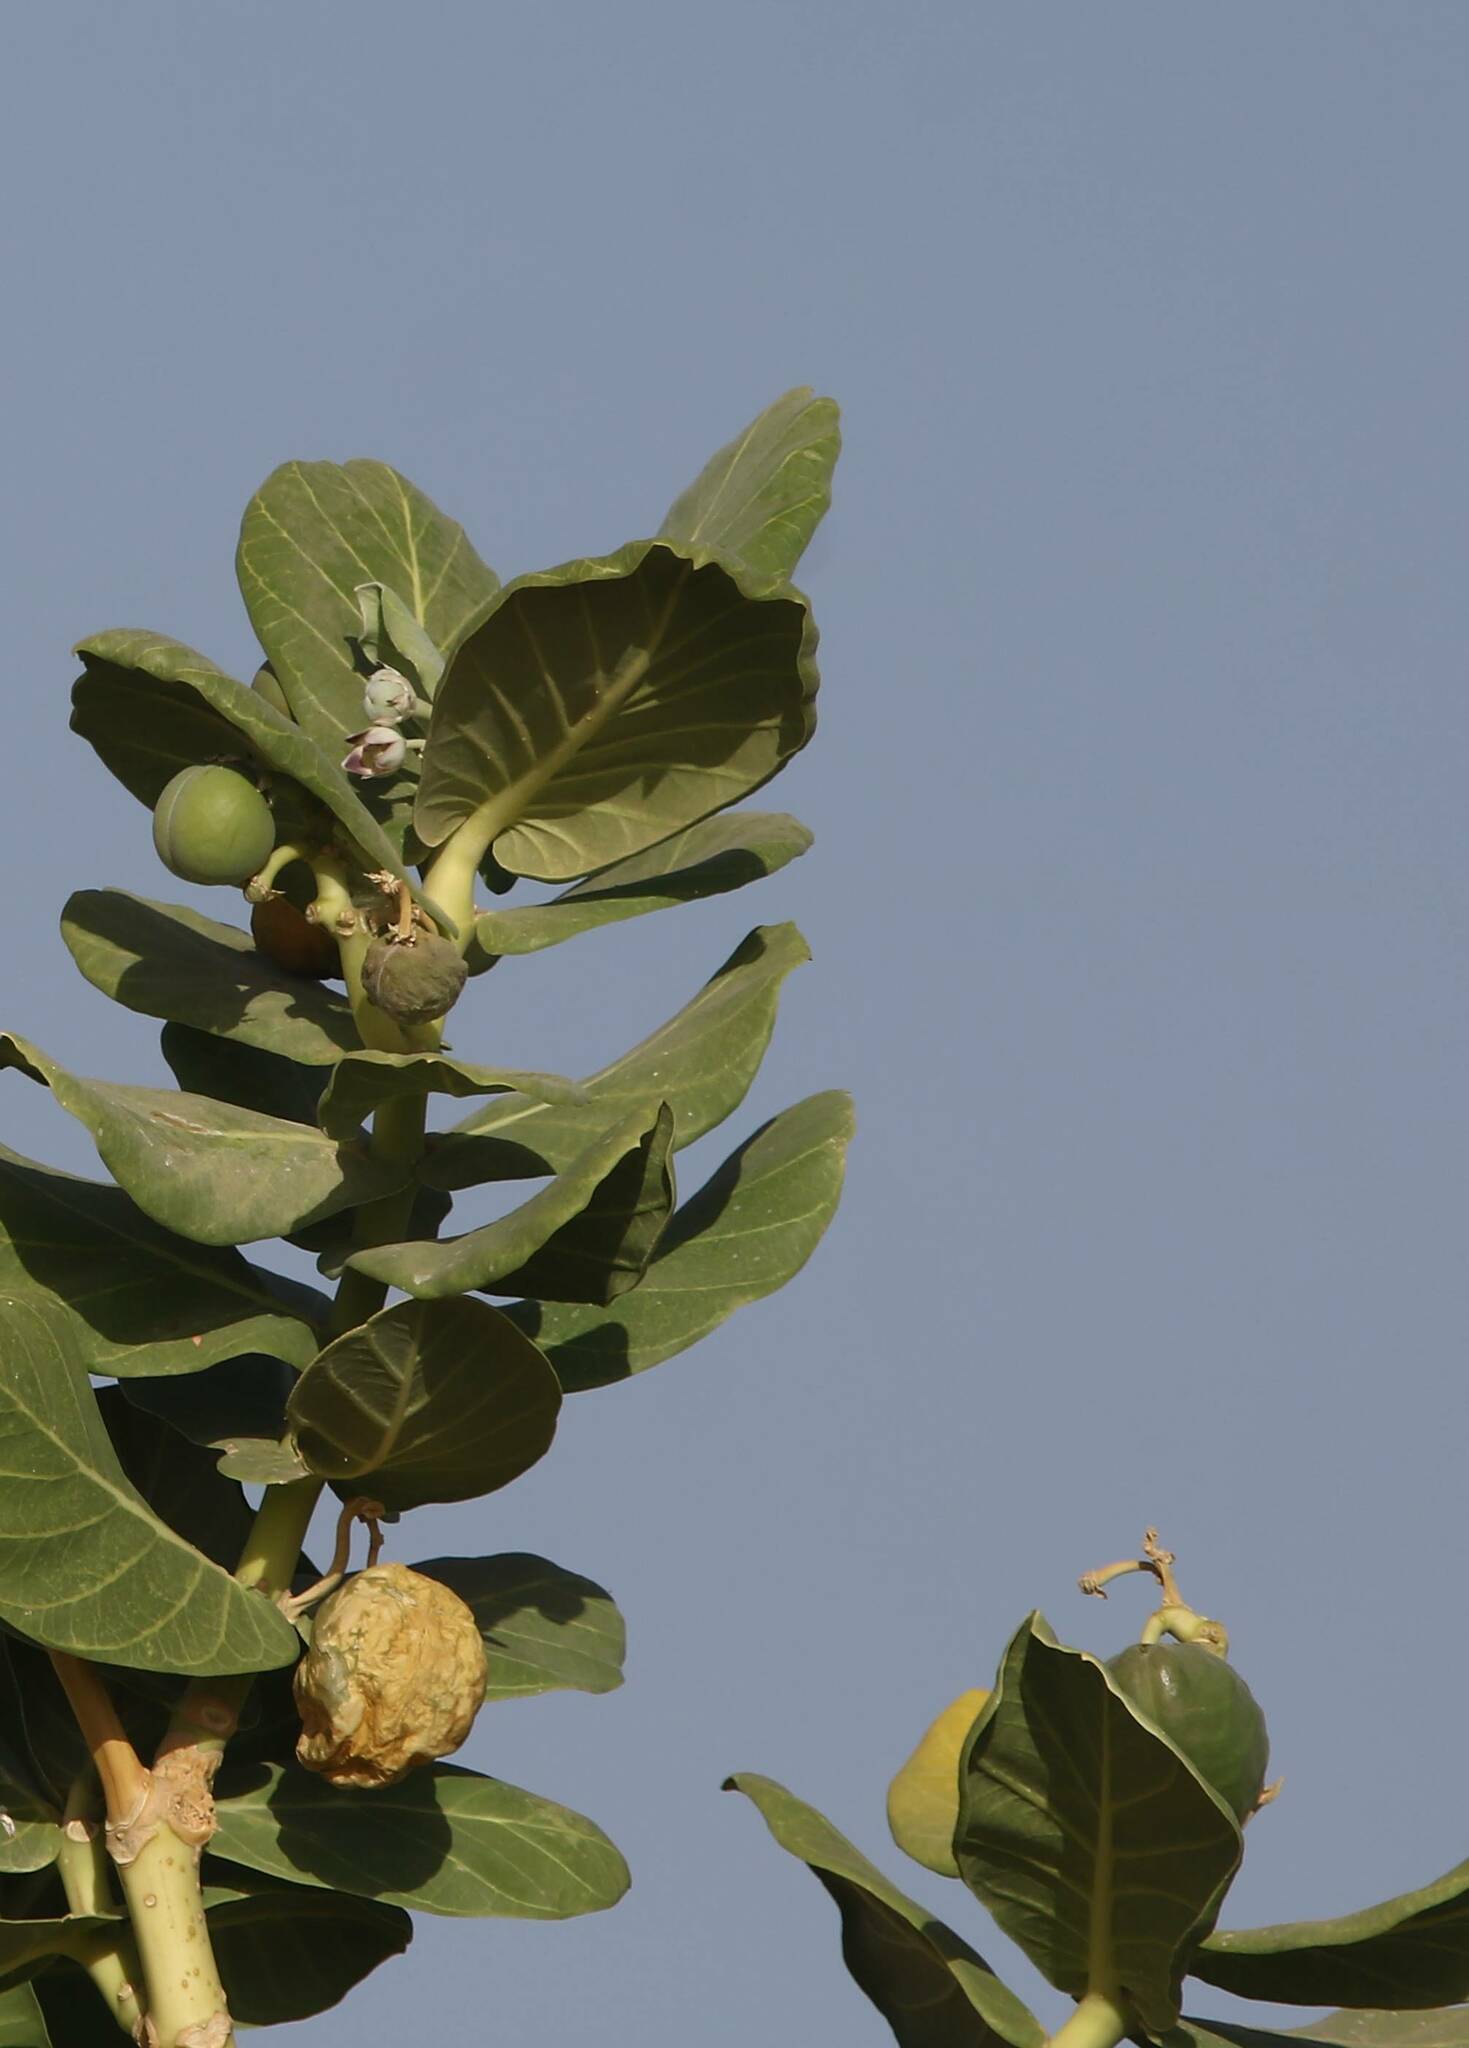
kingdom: Plantae
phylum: Tracheophyta
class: Magnoliopsida
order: Gentianales
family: Apocynaceae
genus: Calotropis
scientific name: Calotropis procera
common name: Roostertree
